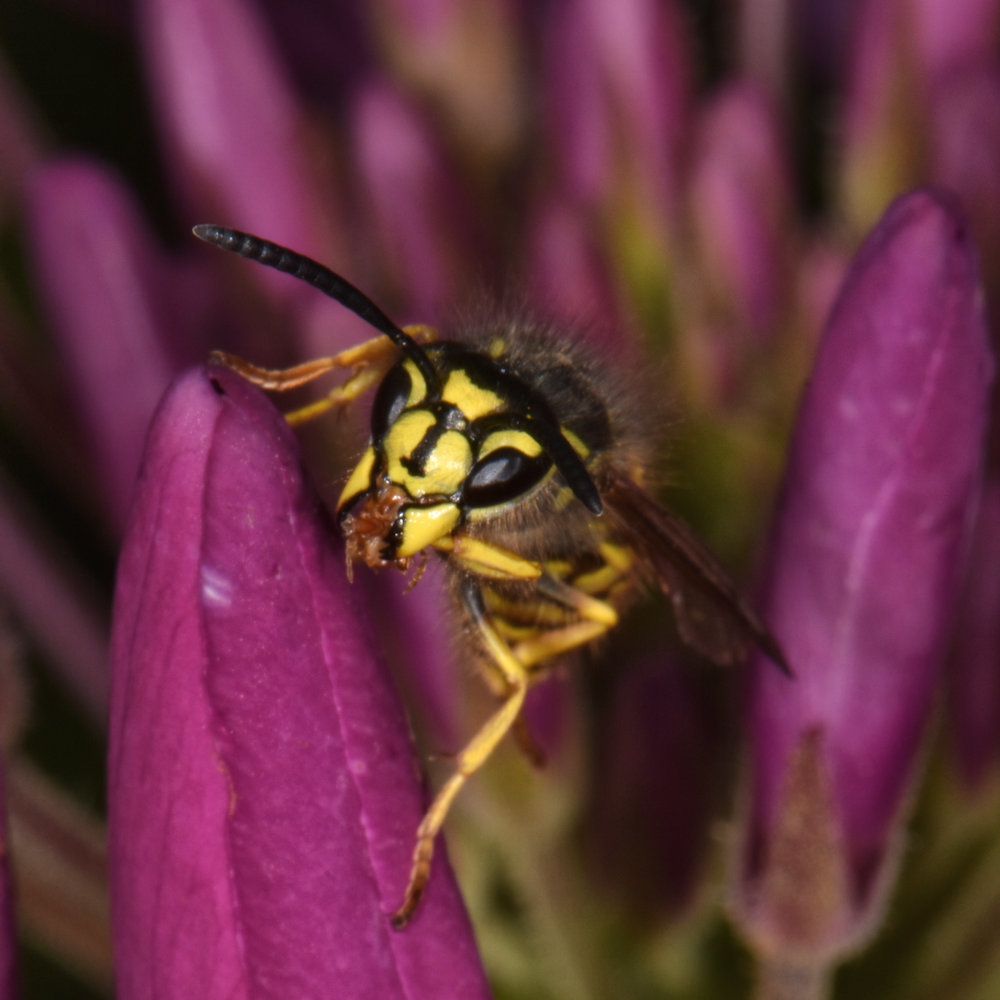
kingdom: Animalia
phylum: Arthropoda
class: Insecta
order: Hymenoptera
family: Vespidae
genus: Vespula
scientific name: Vespula maculifrons
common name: Eastern yellowjacket
